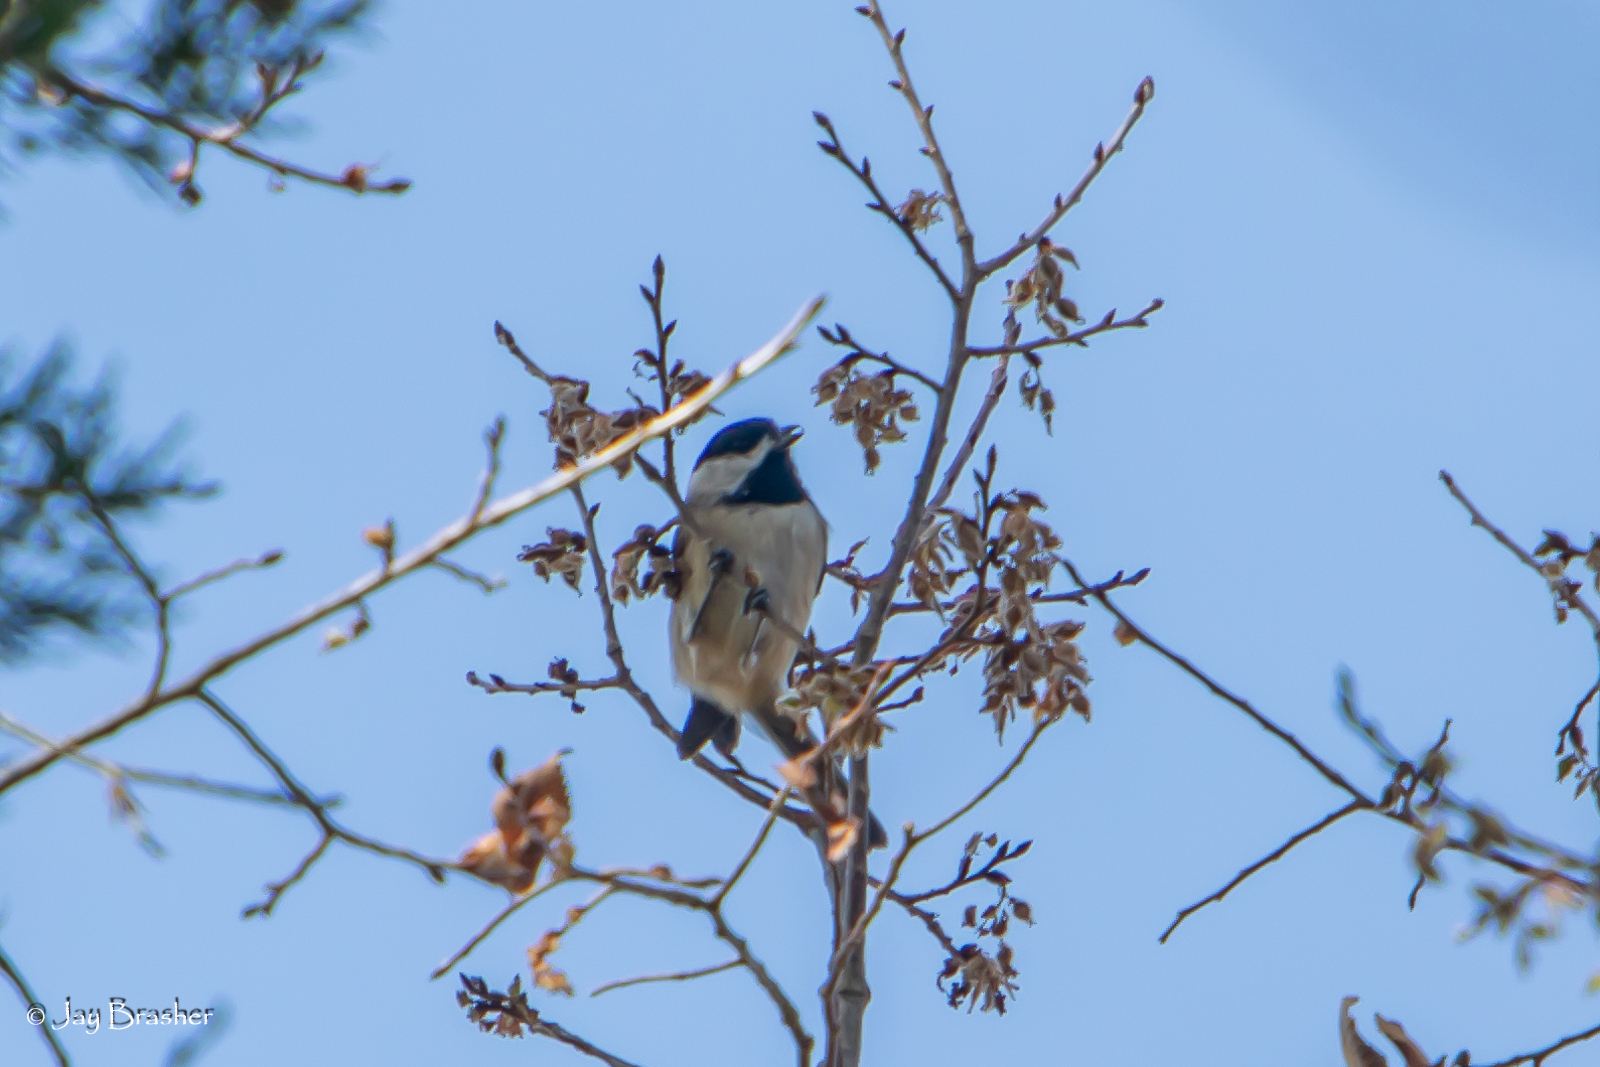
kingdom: Animalia
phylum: Chordata
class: Aves
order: Passeriformes
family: Paridae
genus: Poecile
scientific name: Poecile carolinensis
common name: Carolina chickadee
